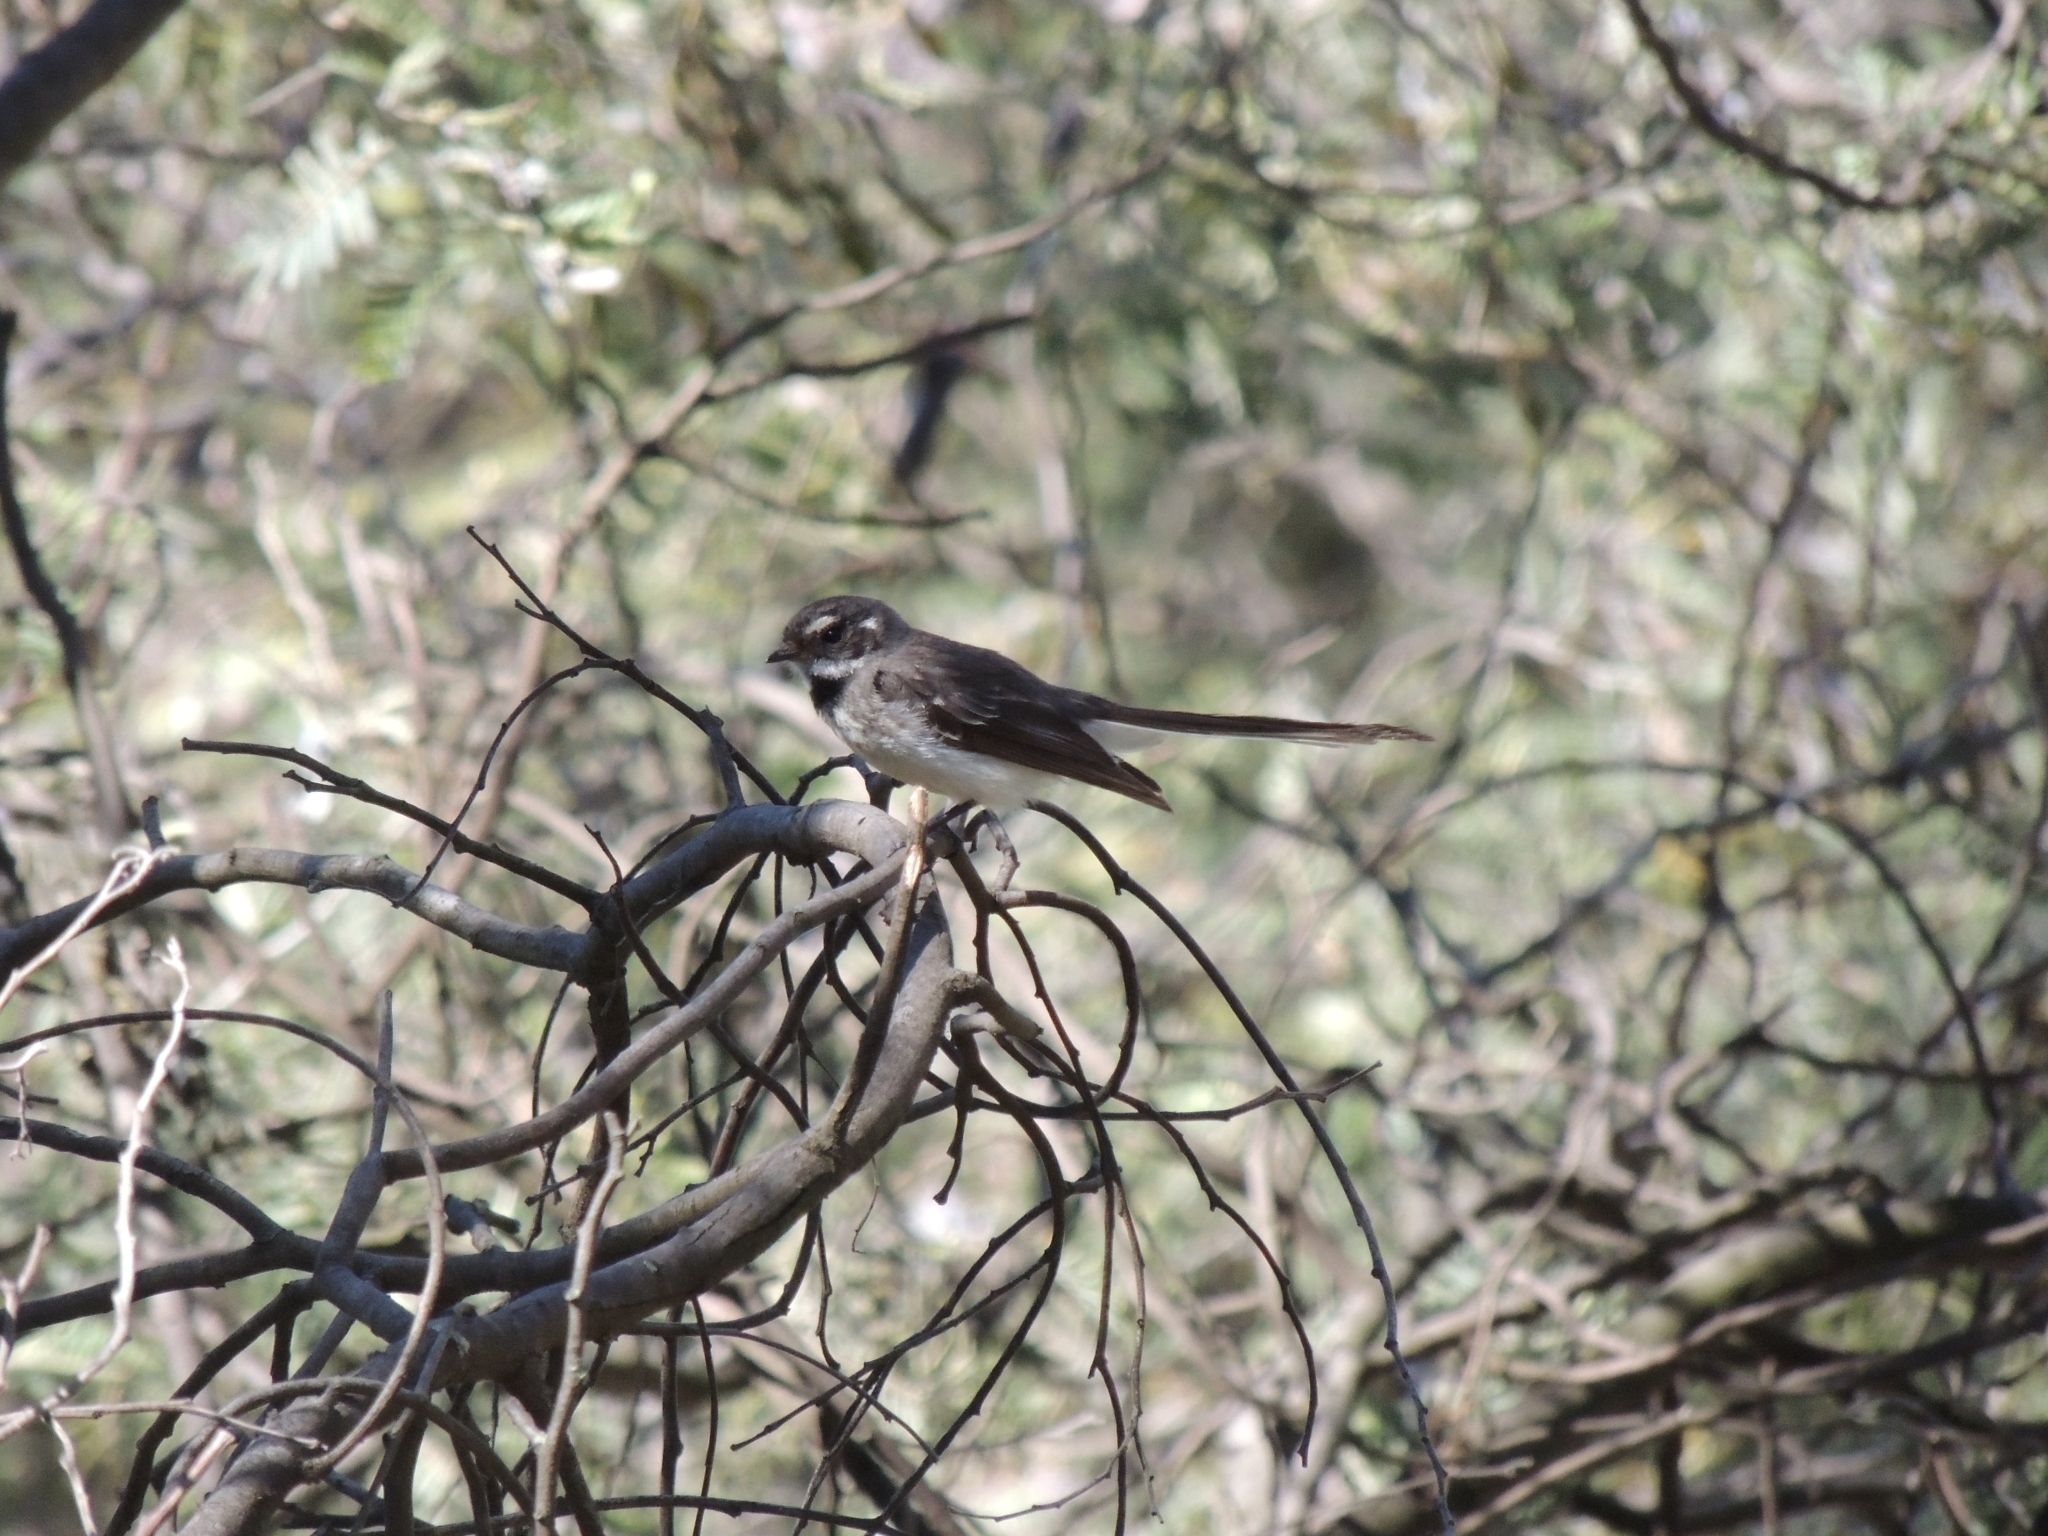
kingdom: Animalia
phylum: Chordata
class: Aves
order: Passeriformes
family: Rhipiduridae
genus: Rhipidura
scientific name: Rhipidura albiscapa
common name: Grey fantail
